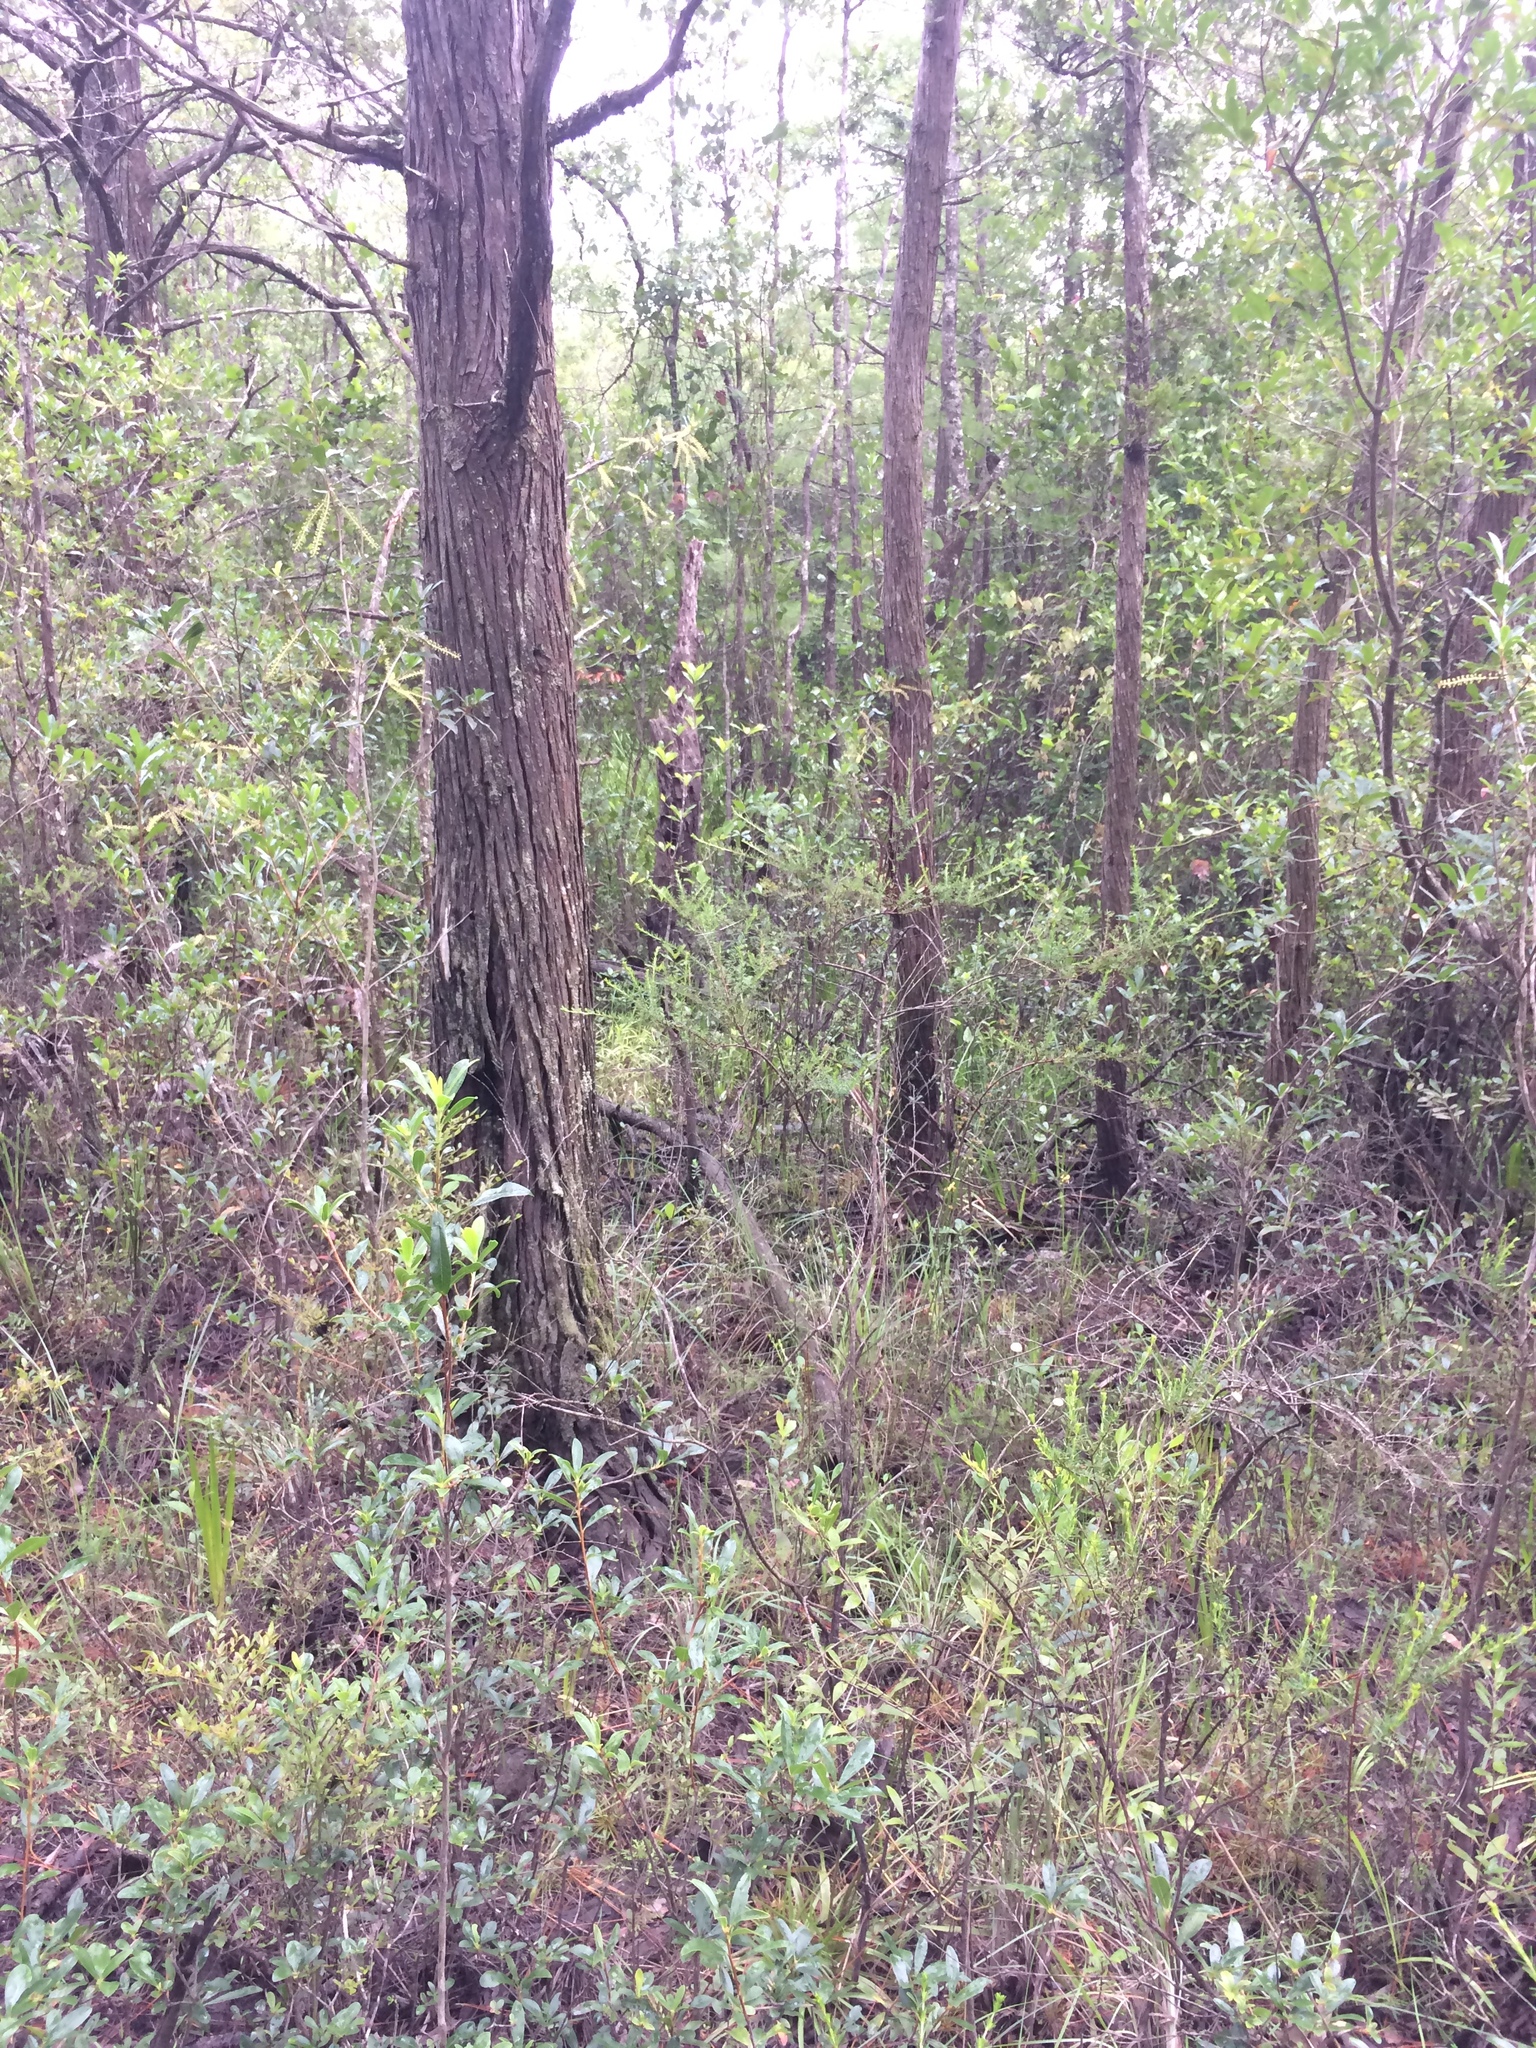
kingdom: Plantae
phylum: Tracheophyta
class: Magnoliopsida
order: Caryophyllales
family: Droseraceae
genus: Drosera
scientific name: Drosera intermedia
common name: Oblong-leaved sundew
